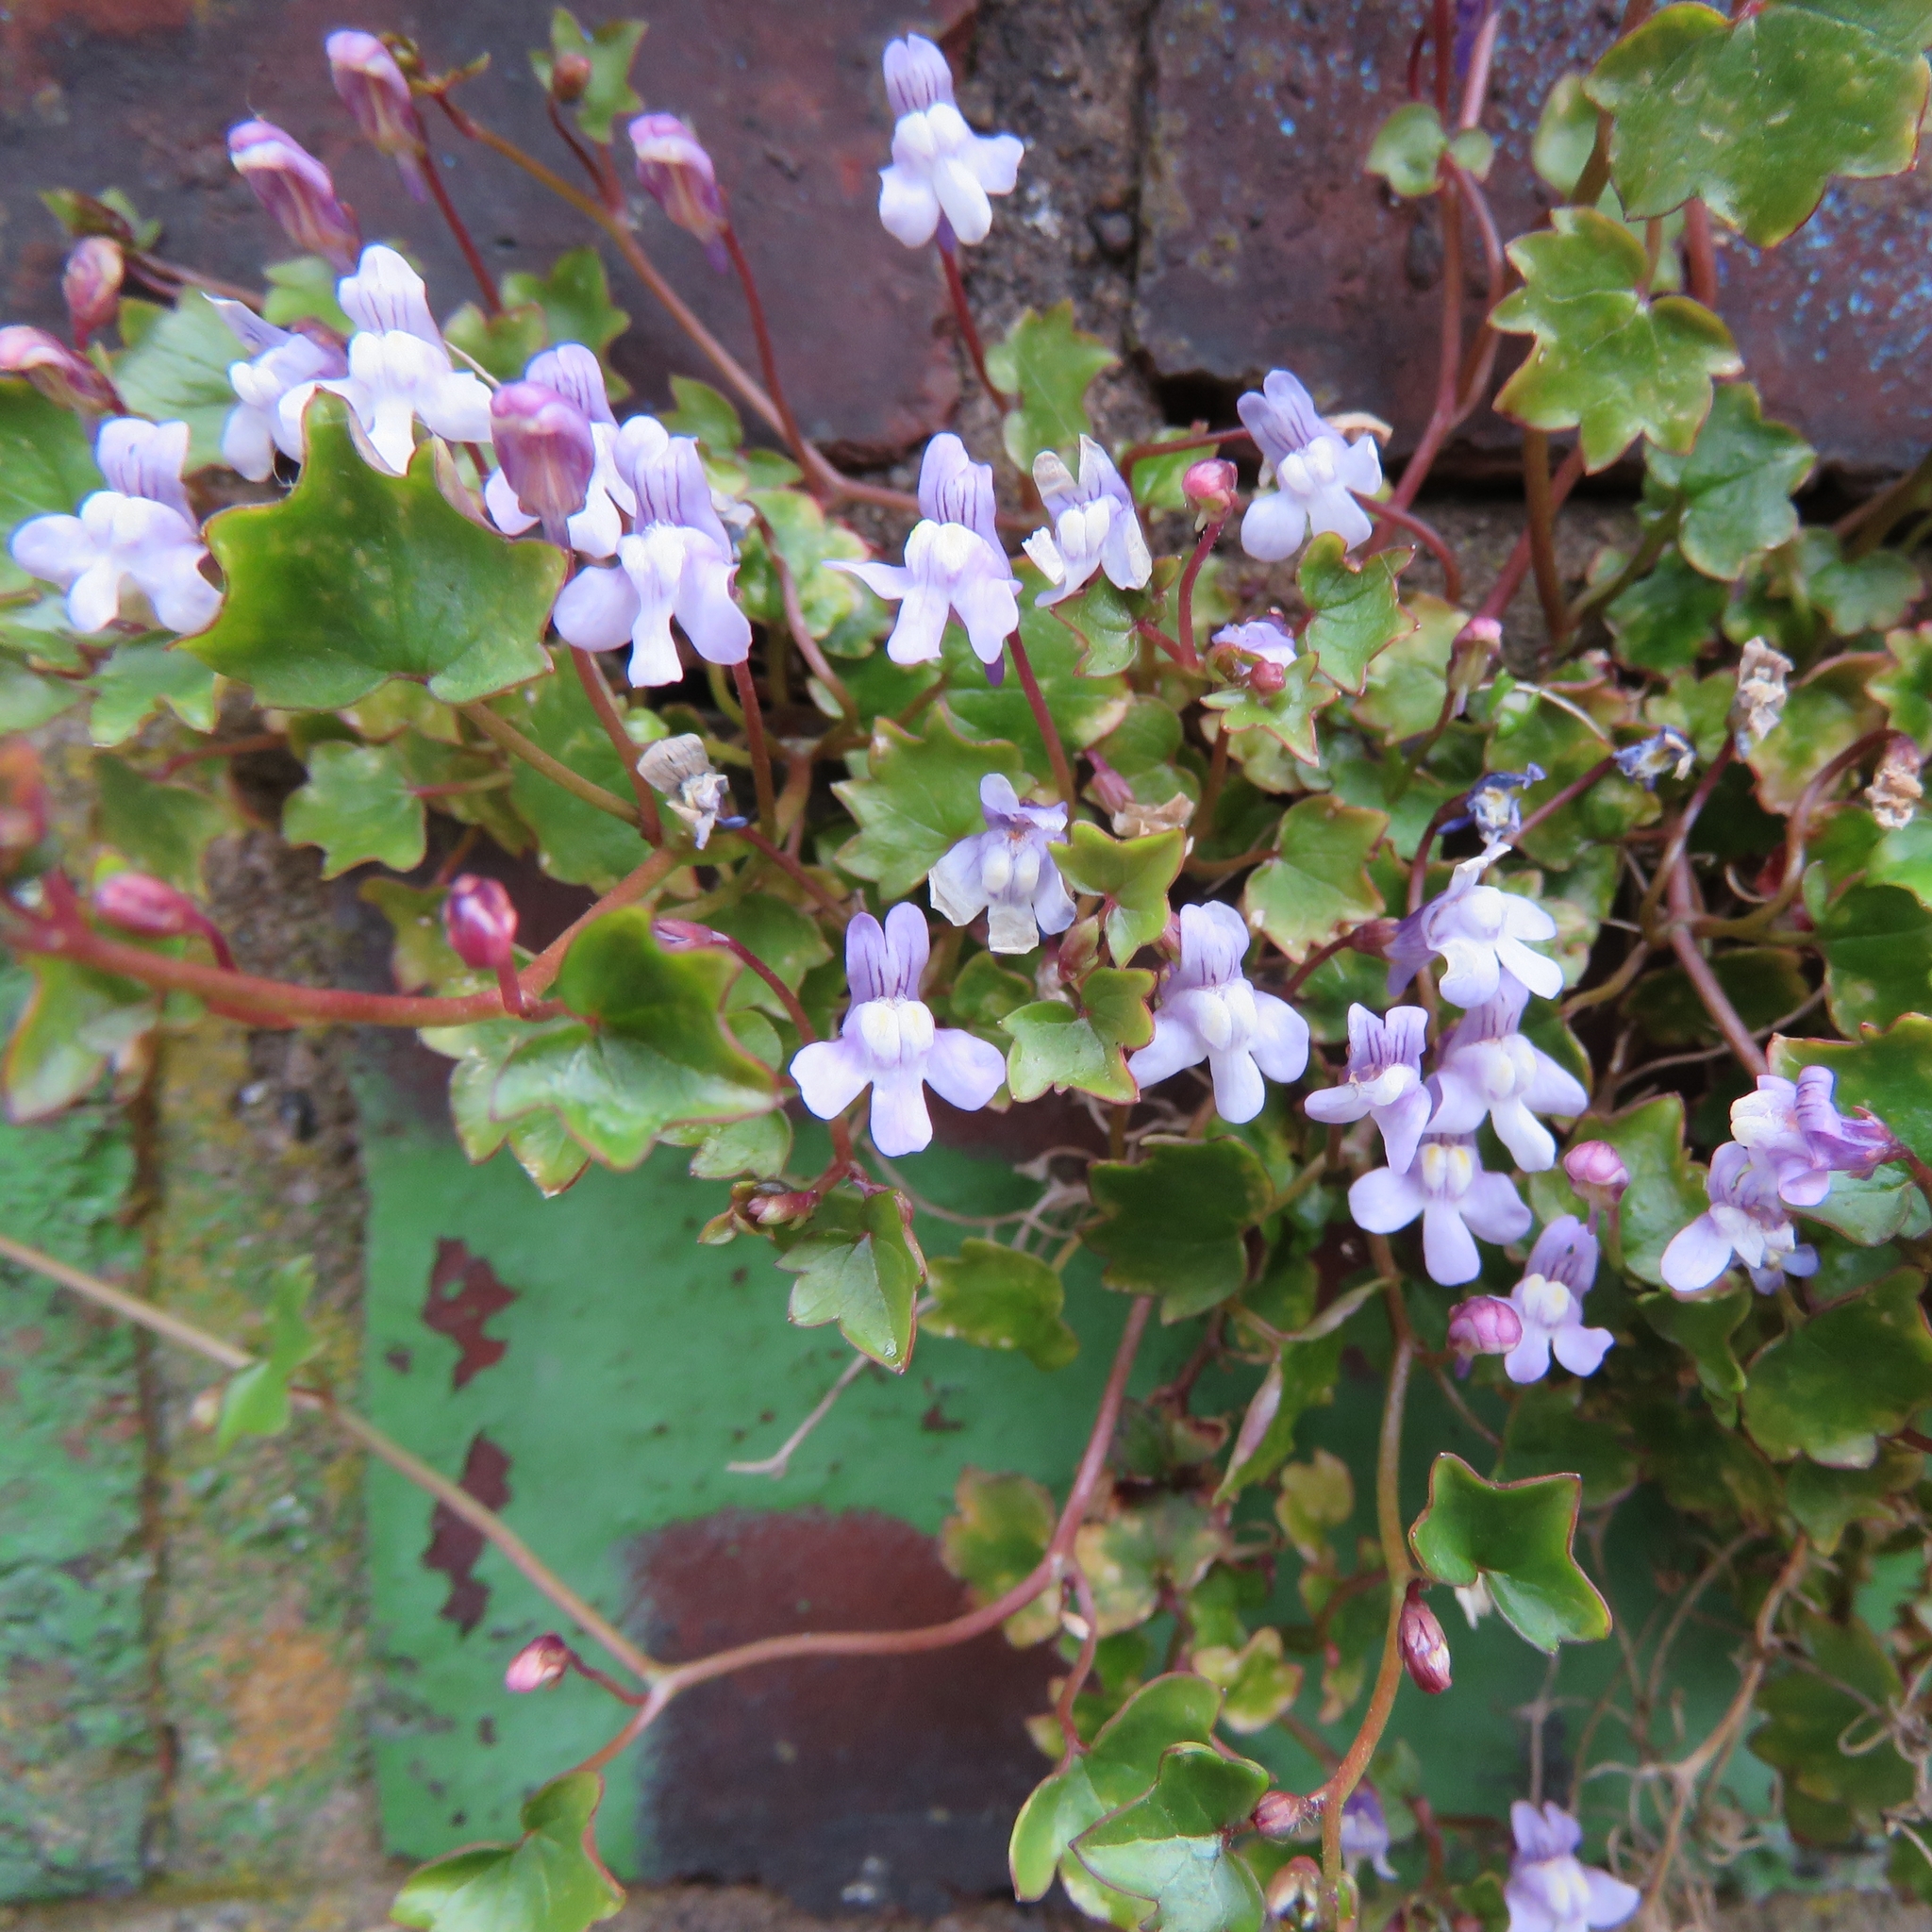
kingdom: Plantae
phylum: Tracheophyta
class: Magnoliopsida
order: Lamiales
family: Plantaginaceae
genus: Cymbalaria
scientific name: Cymbalaria muralis
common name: Ivy-leaved toadflax
